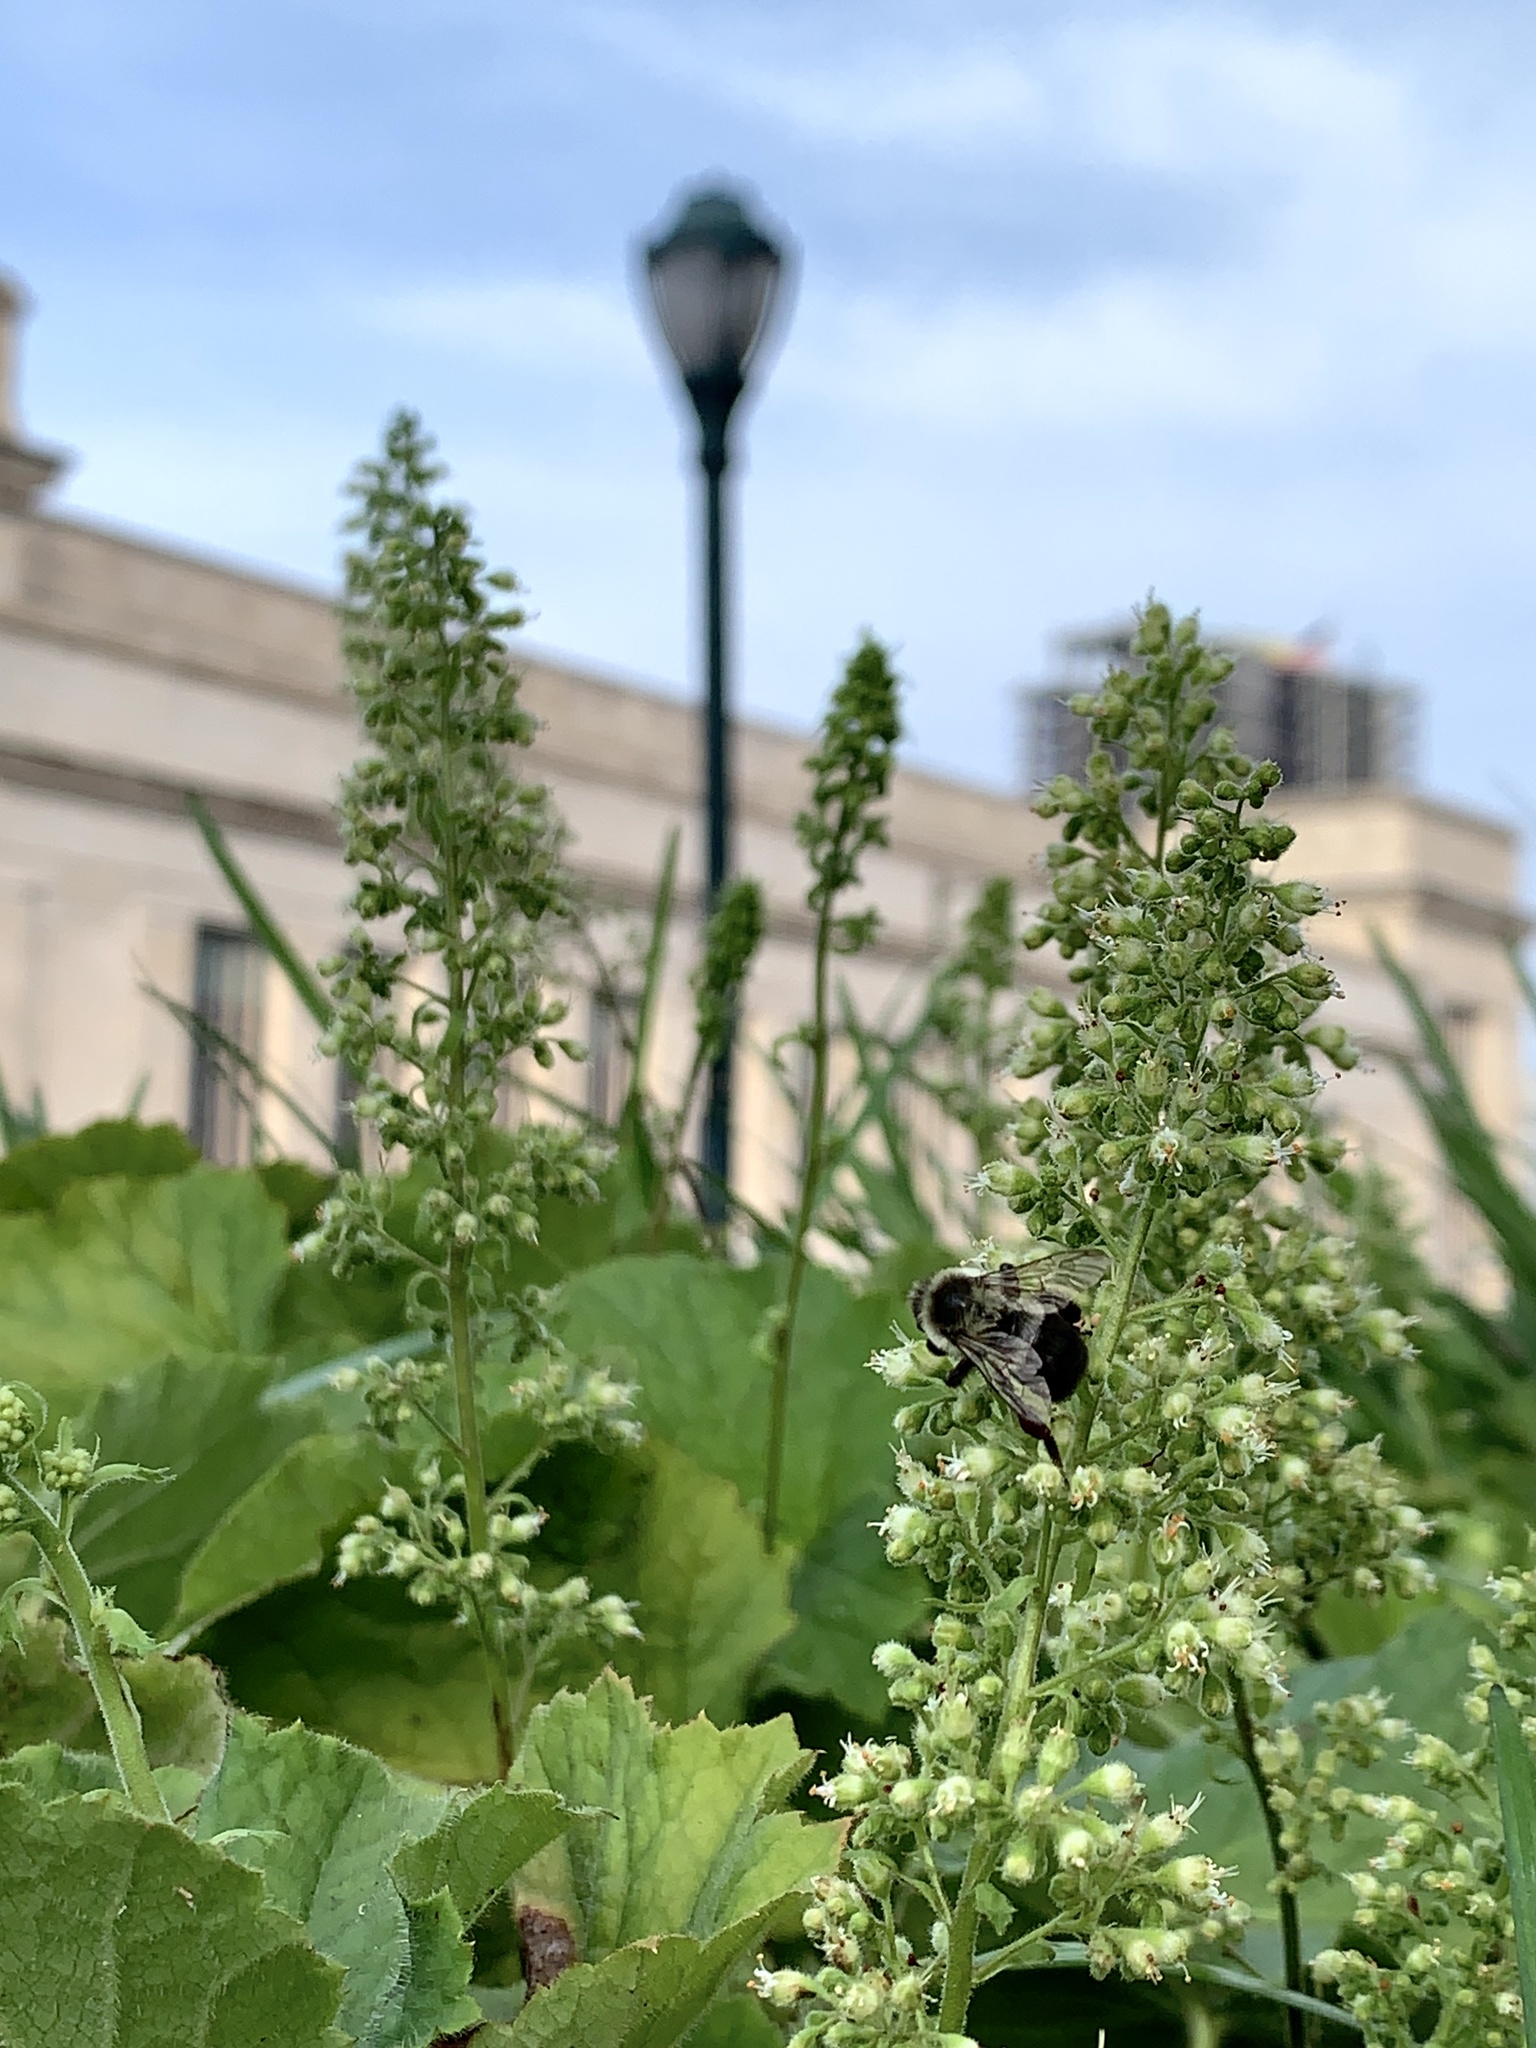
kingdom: Animalia
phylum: Arthropoda
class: Insecta
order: Hymenoptera
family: Apidae
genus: Bombus
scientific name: Bombus impatiens
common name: Common eastern bumble bee
